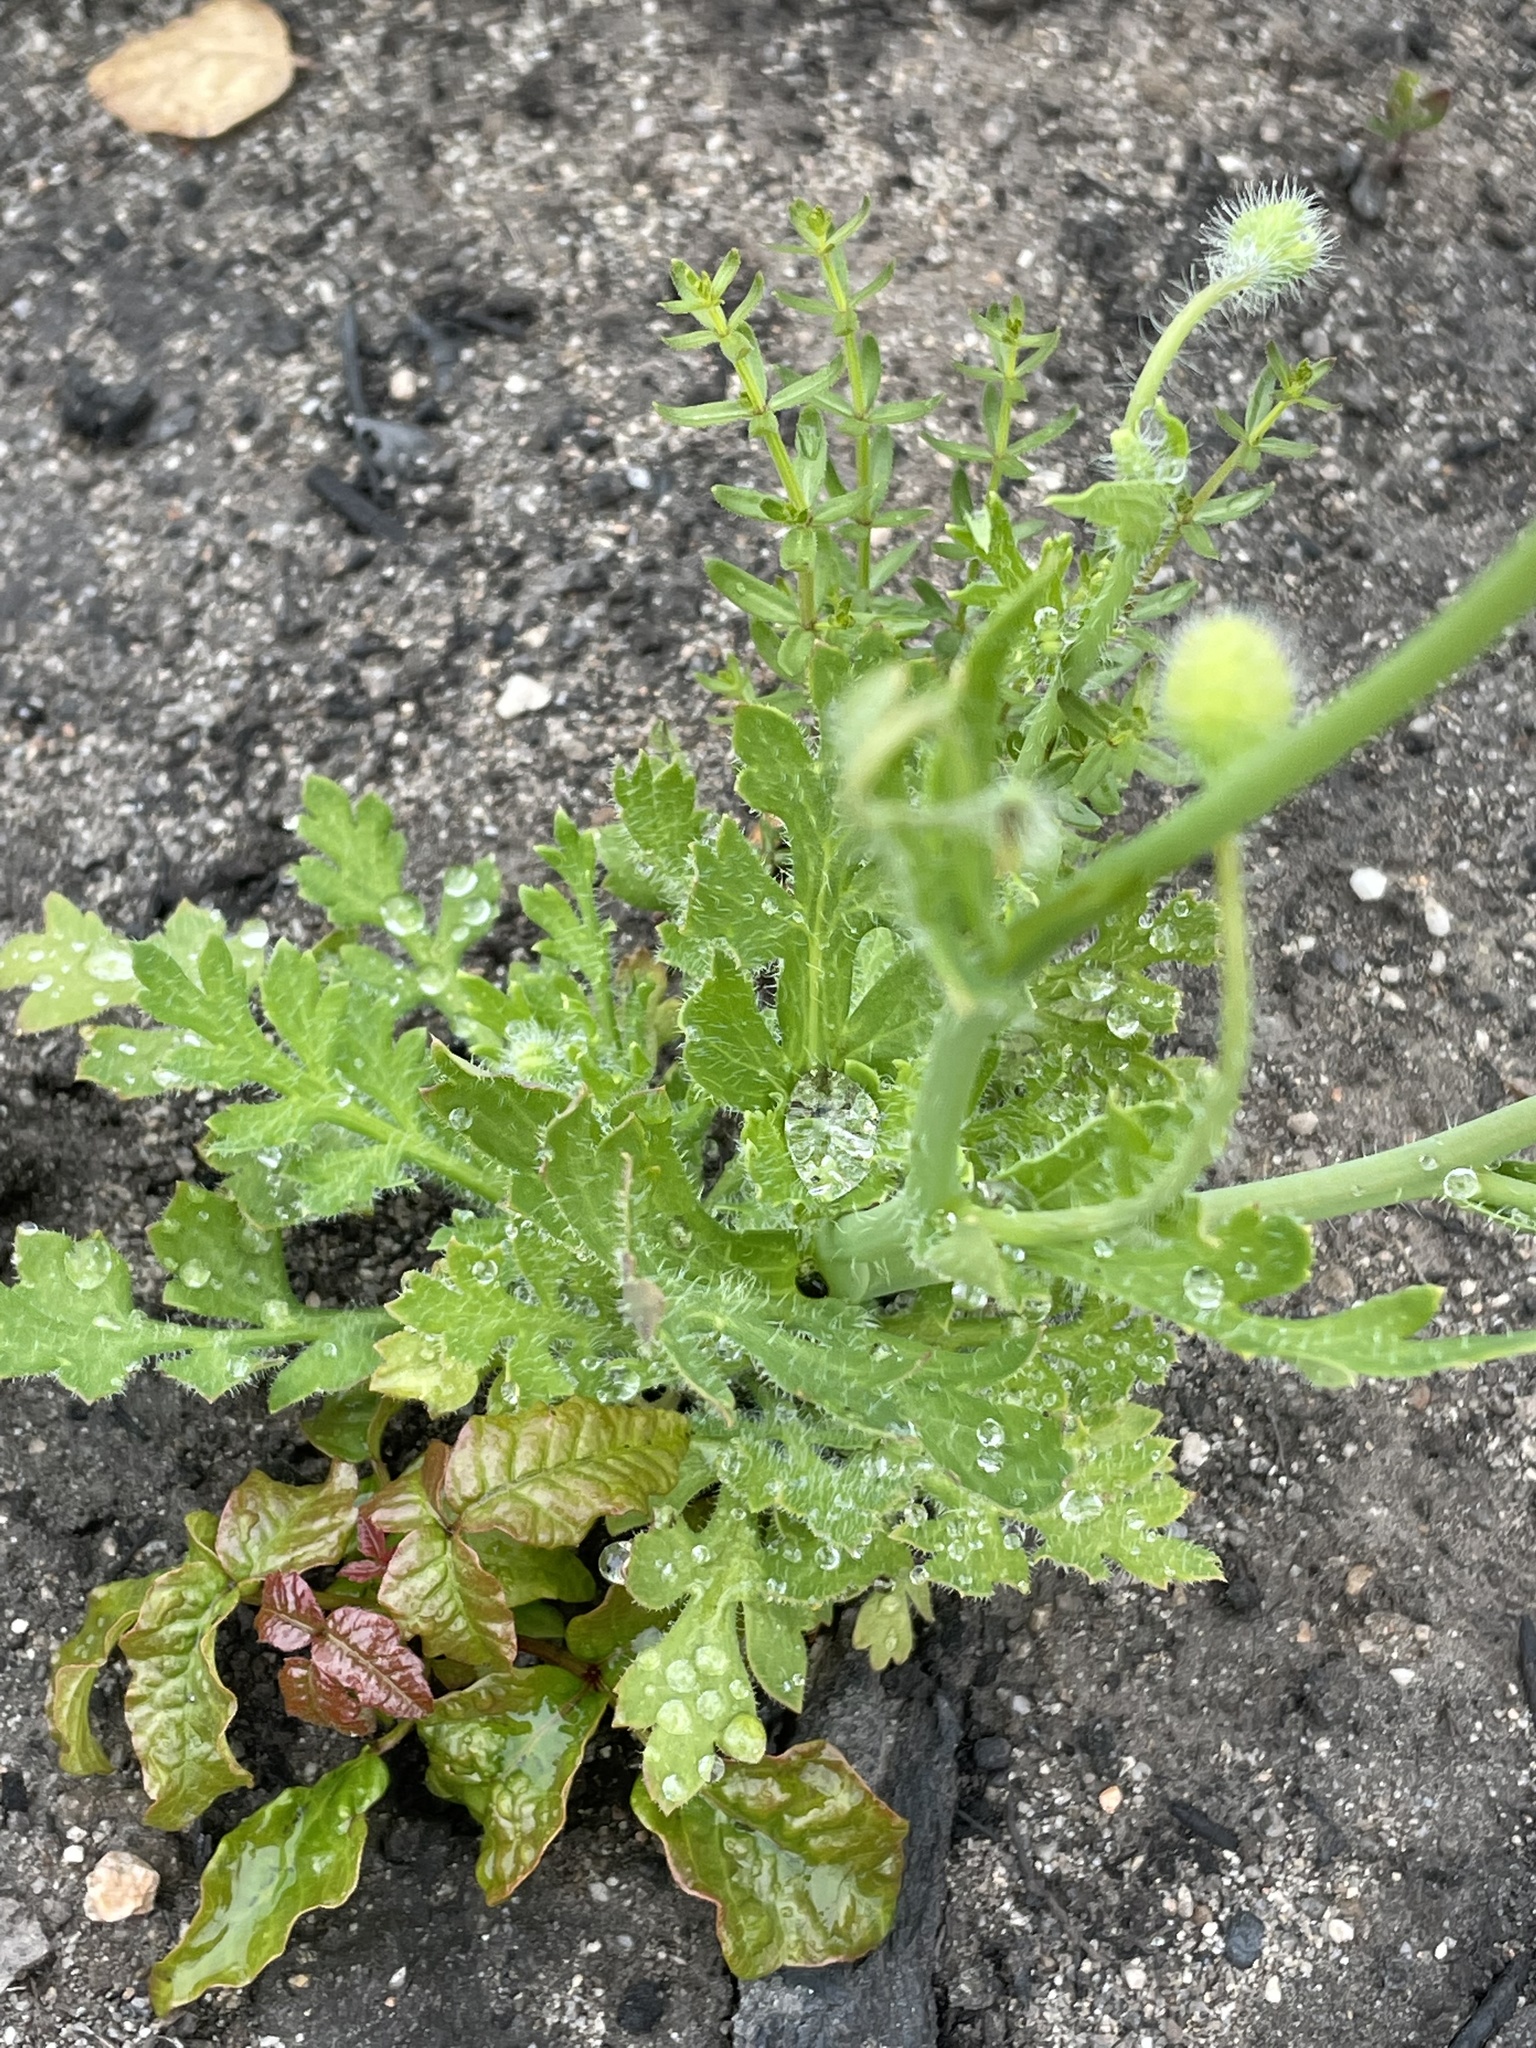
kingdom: Plantae
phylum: Tracheophyta
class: Magnoliopsida
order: Ranunculales
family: Papaveraceae
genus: Papaver
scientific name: Papaver californicum
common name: Fire poppy
